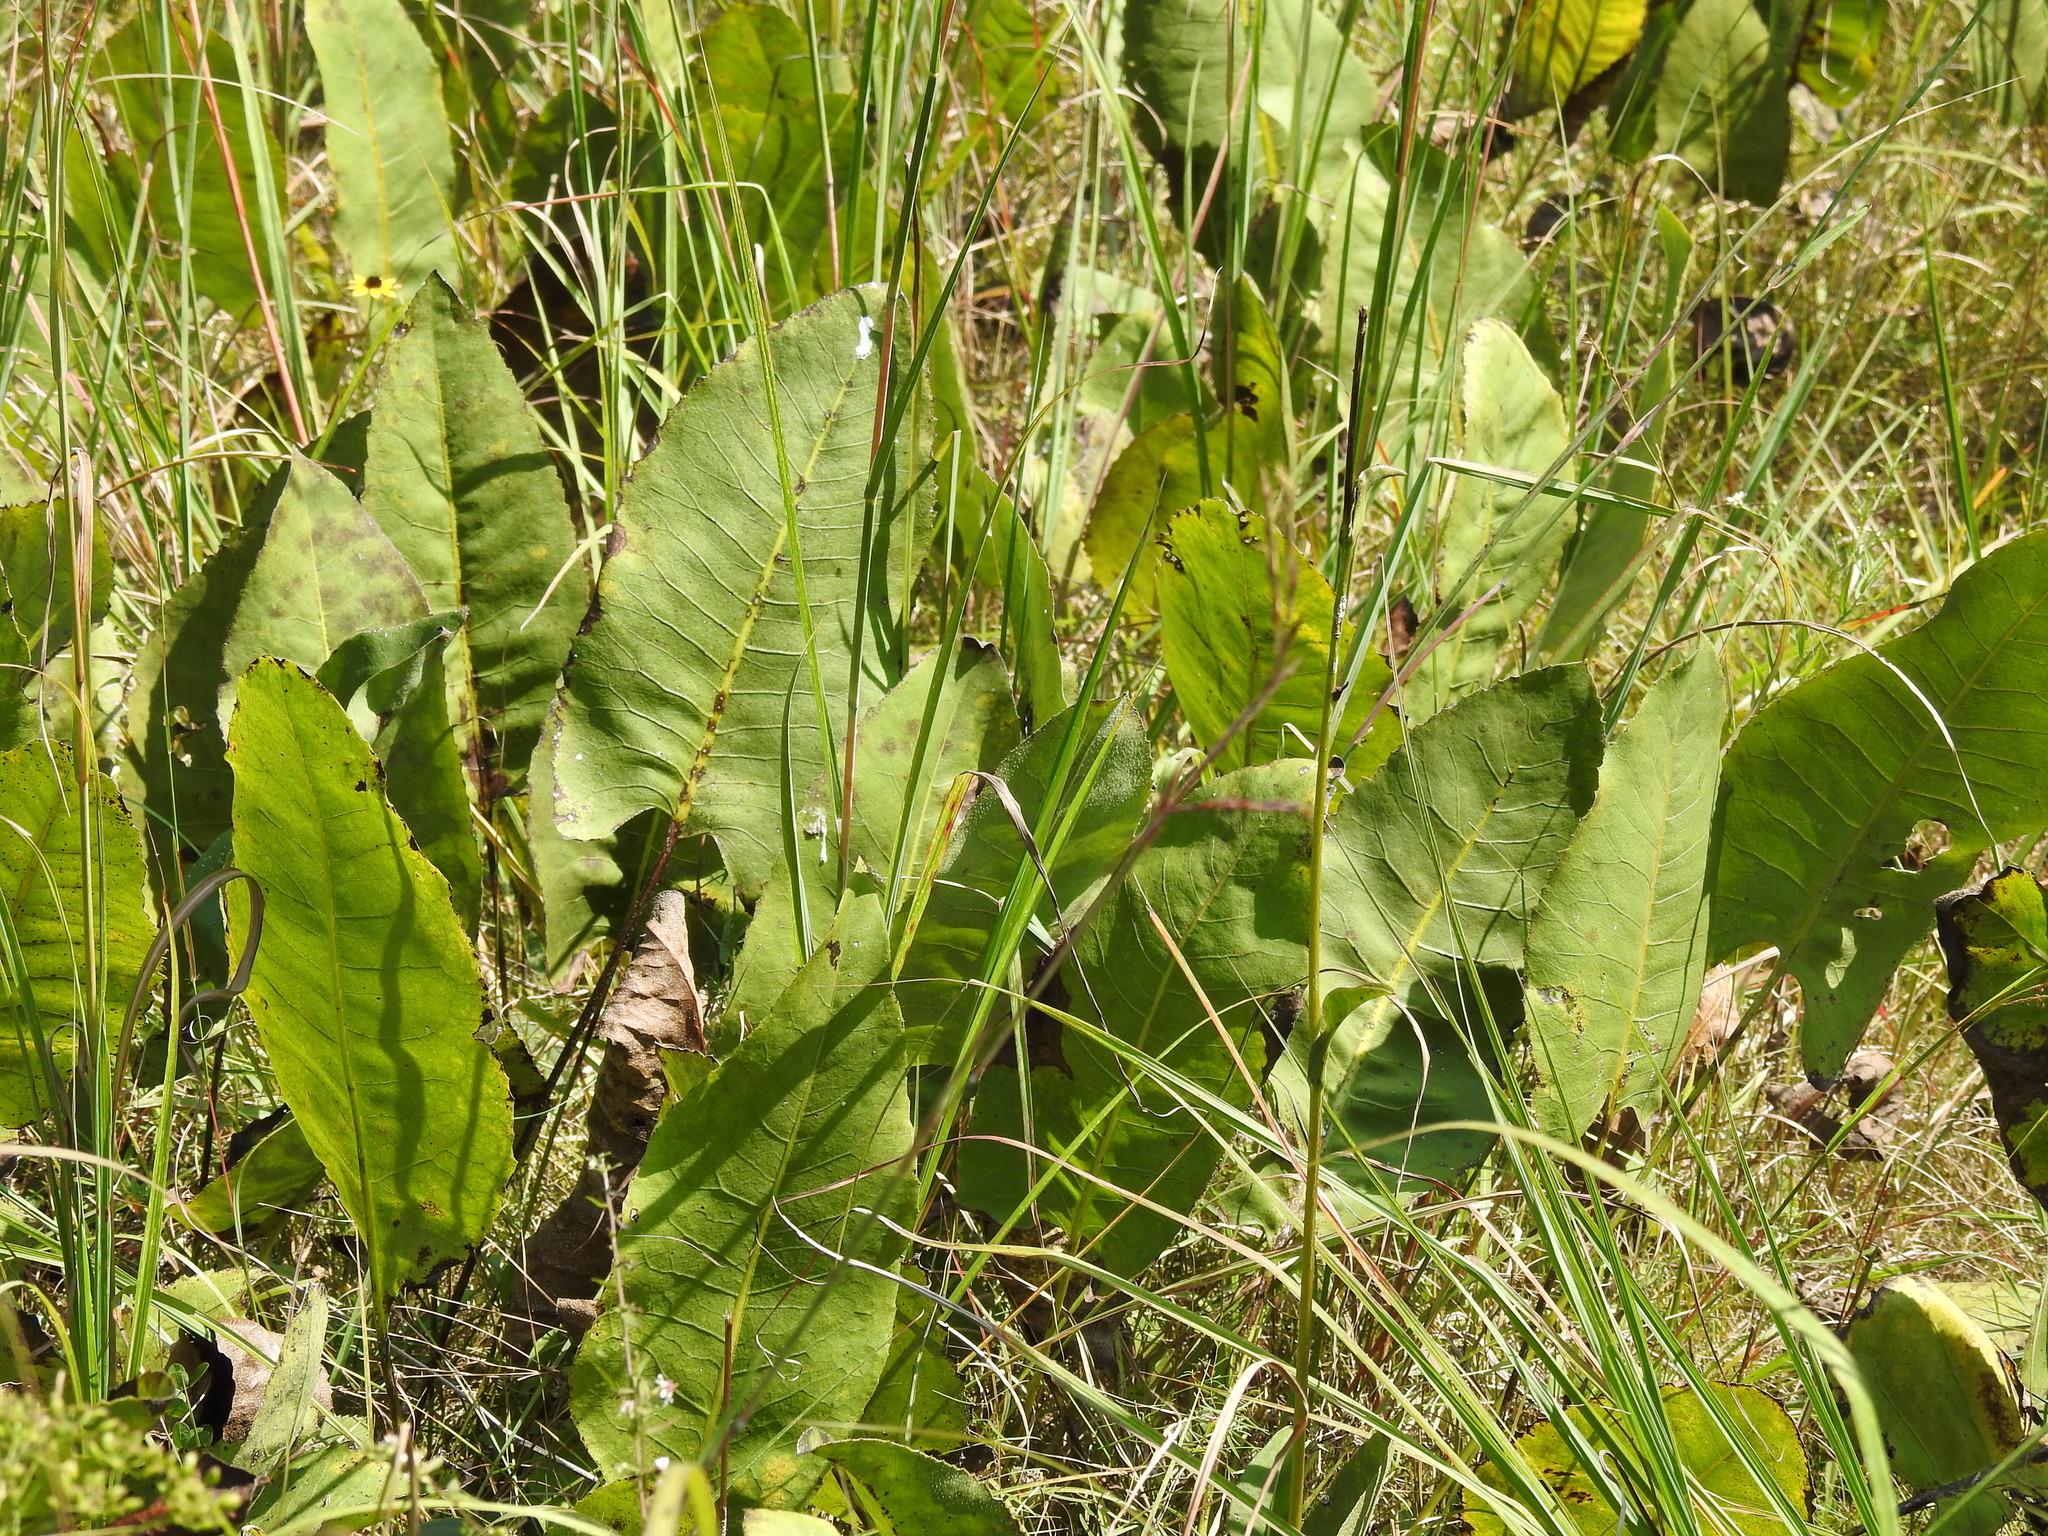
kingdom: Plantae
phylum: Tracheophyta
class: Magnoliopsida
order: Asterales
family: Asteraceae
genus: Silphium
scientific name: Silphium terebinthinaceum
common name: Basal-leaf rosinweed
